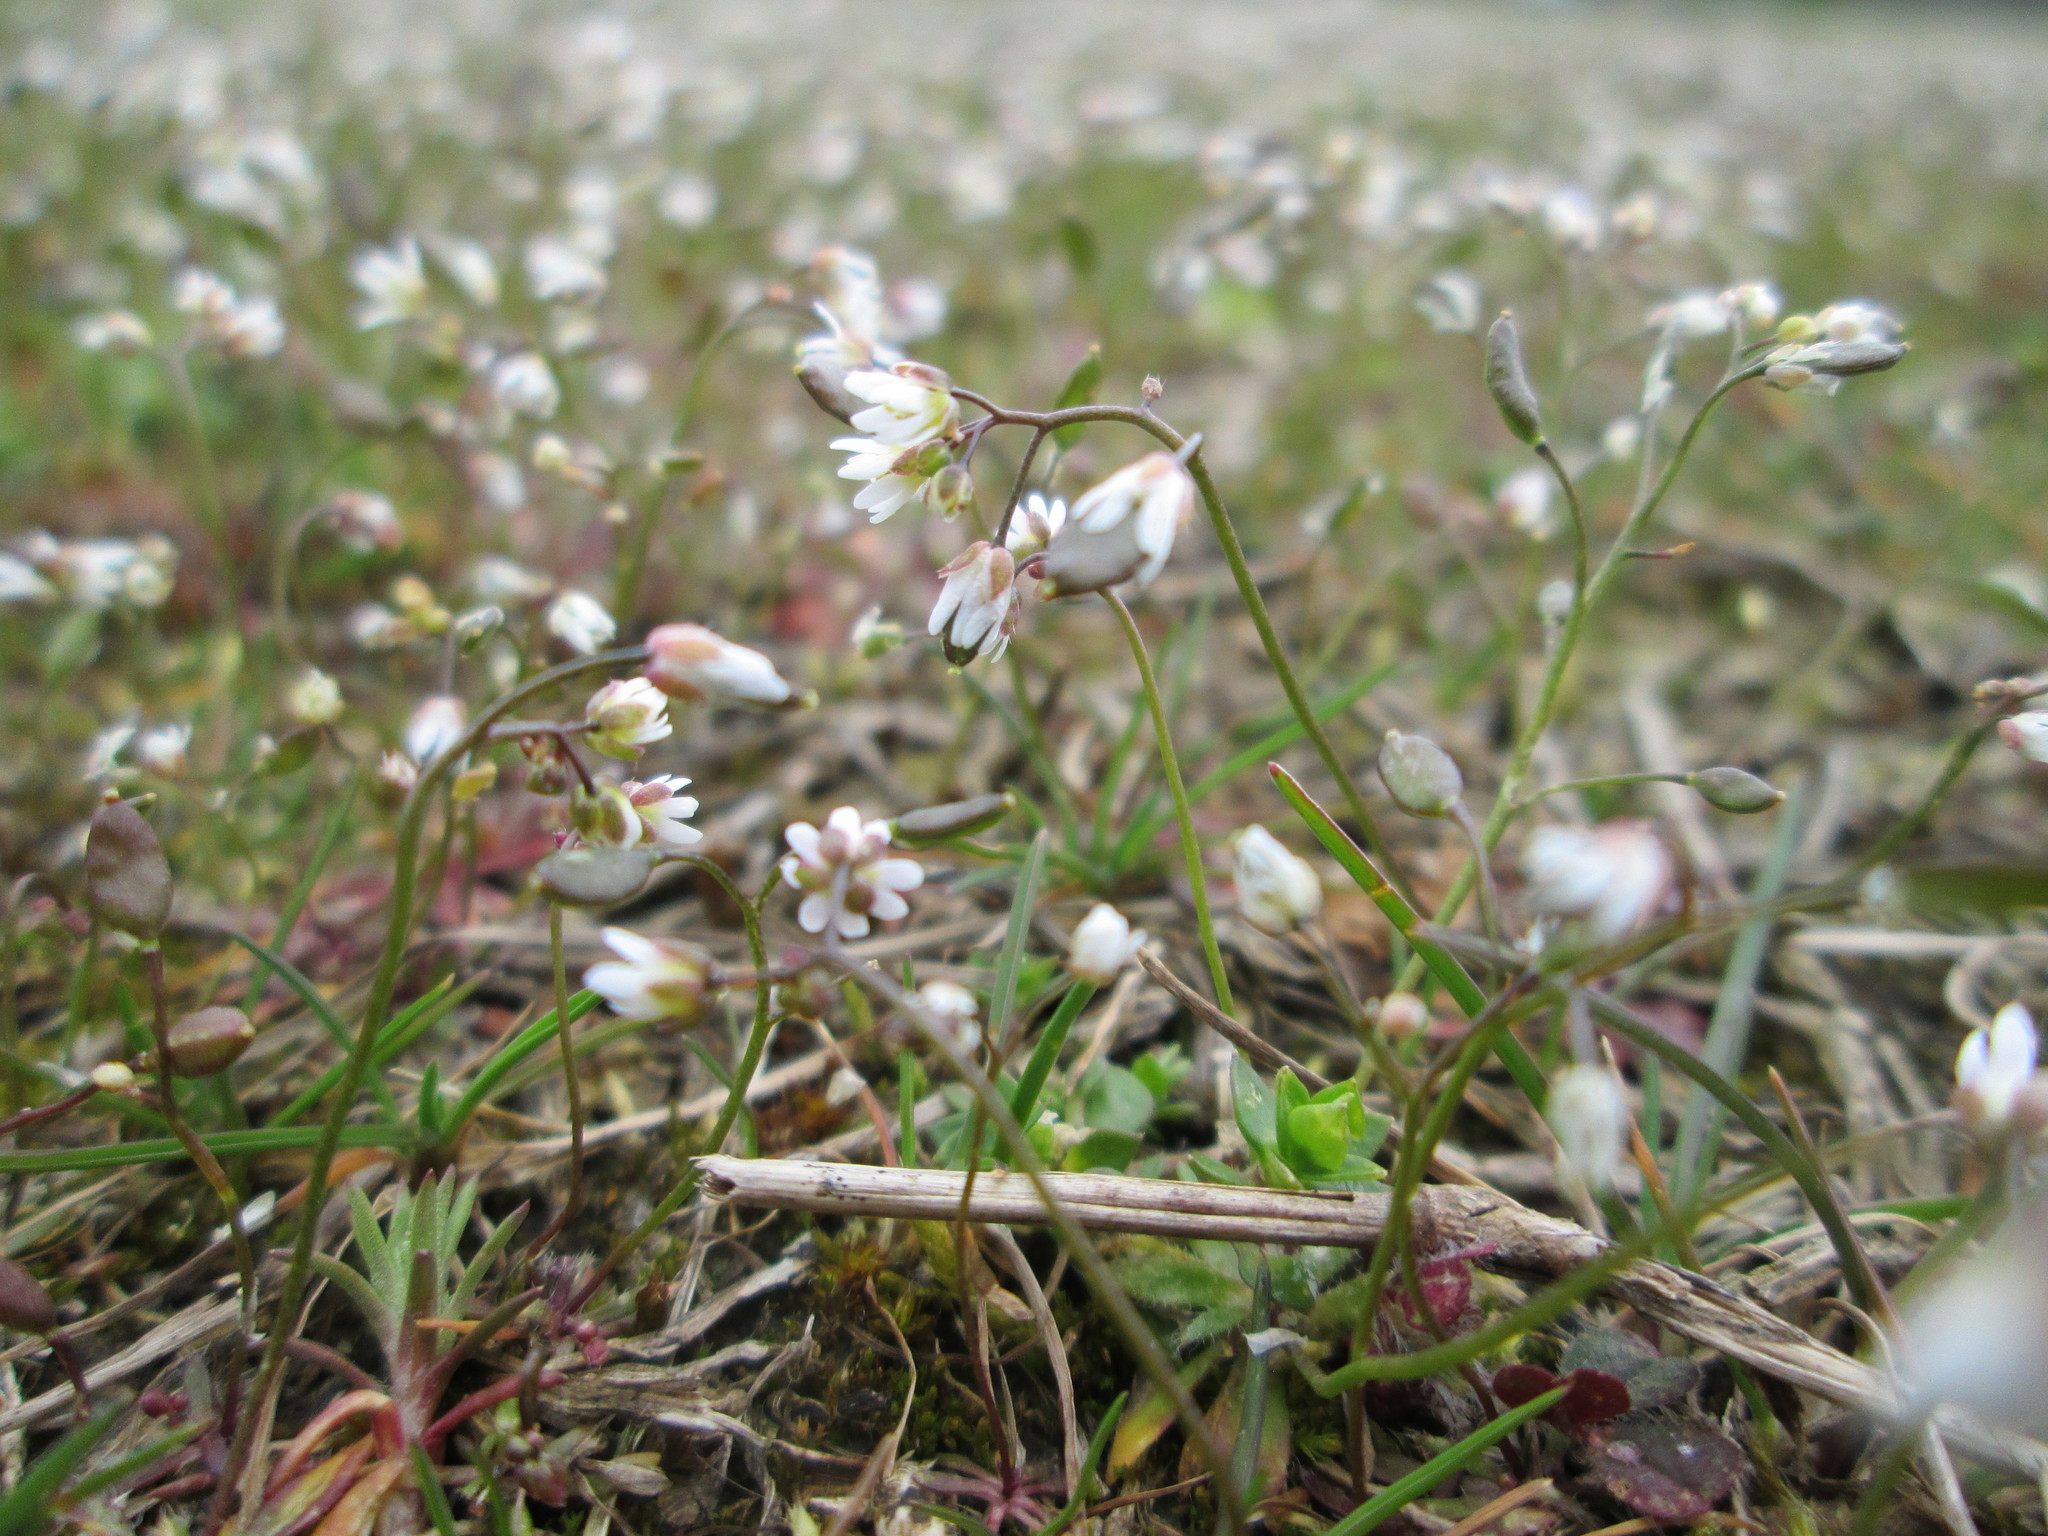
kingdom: Plantae
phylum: Tracheophyta
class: Magnoliopsida
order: Brassicales
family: Brassicaceae
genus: Draba
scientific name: Draba verna
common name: Spring draba
